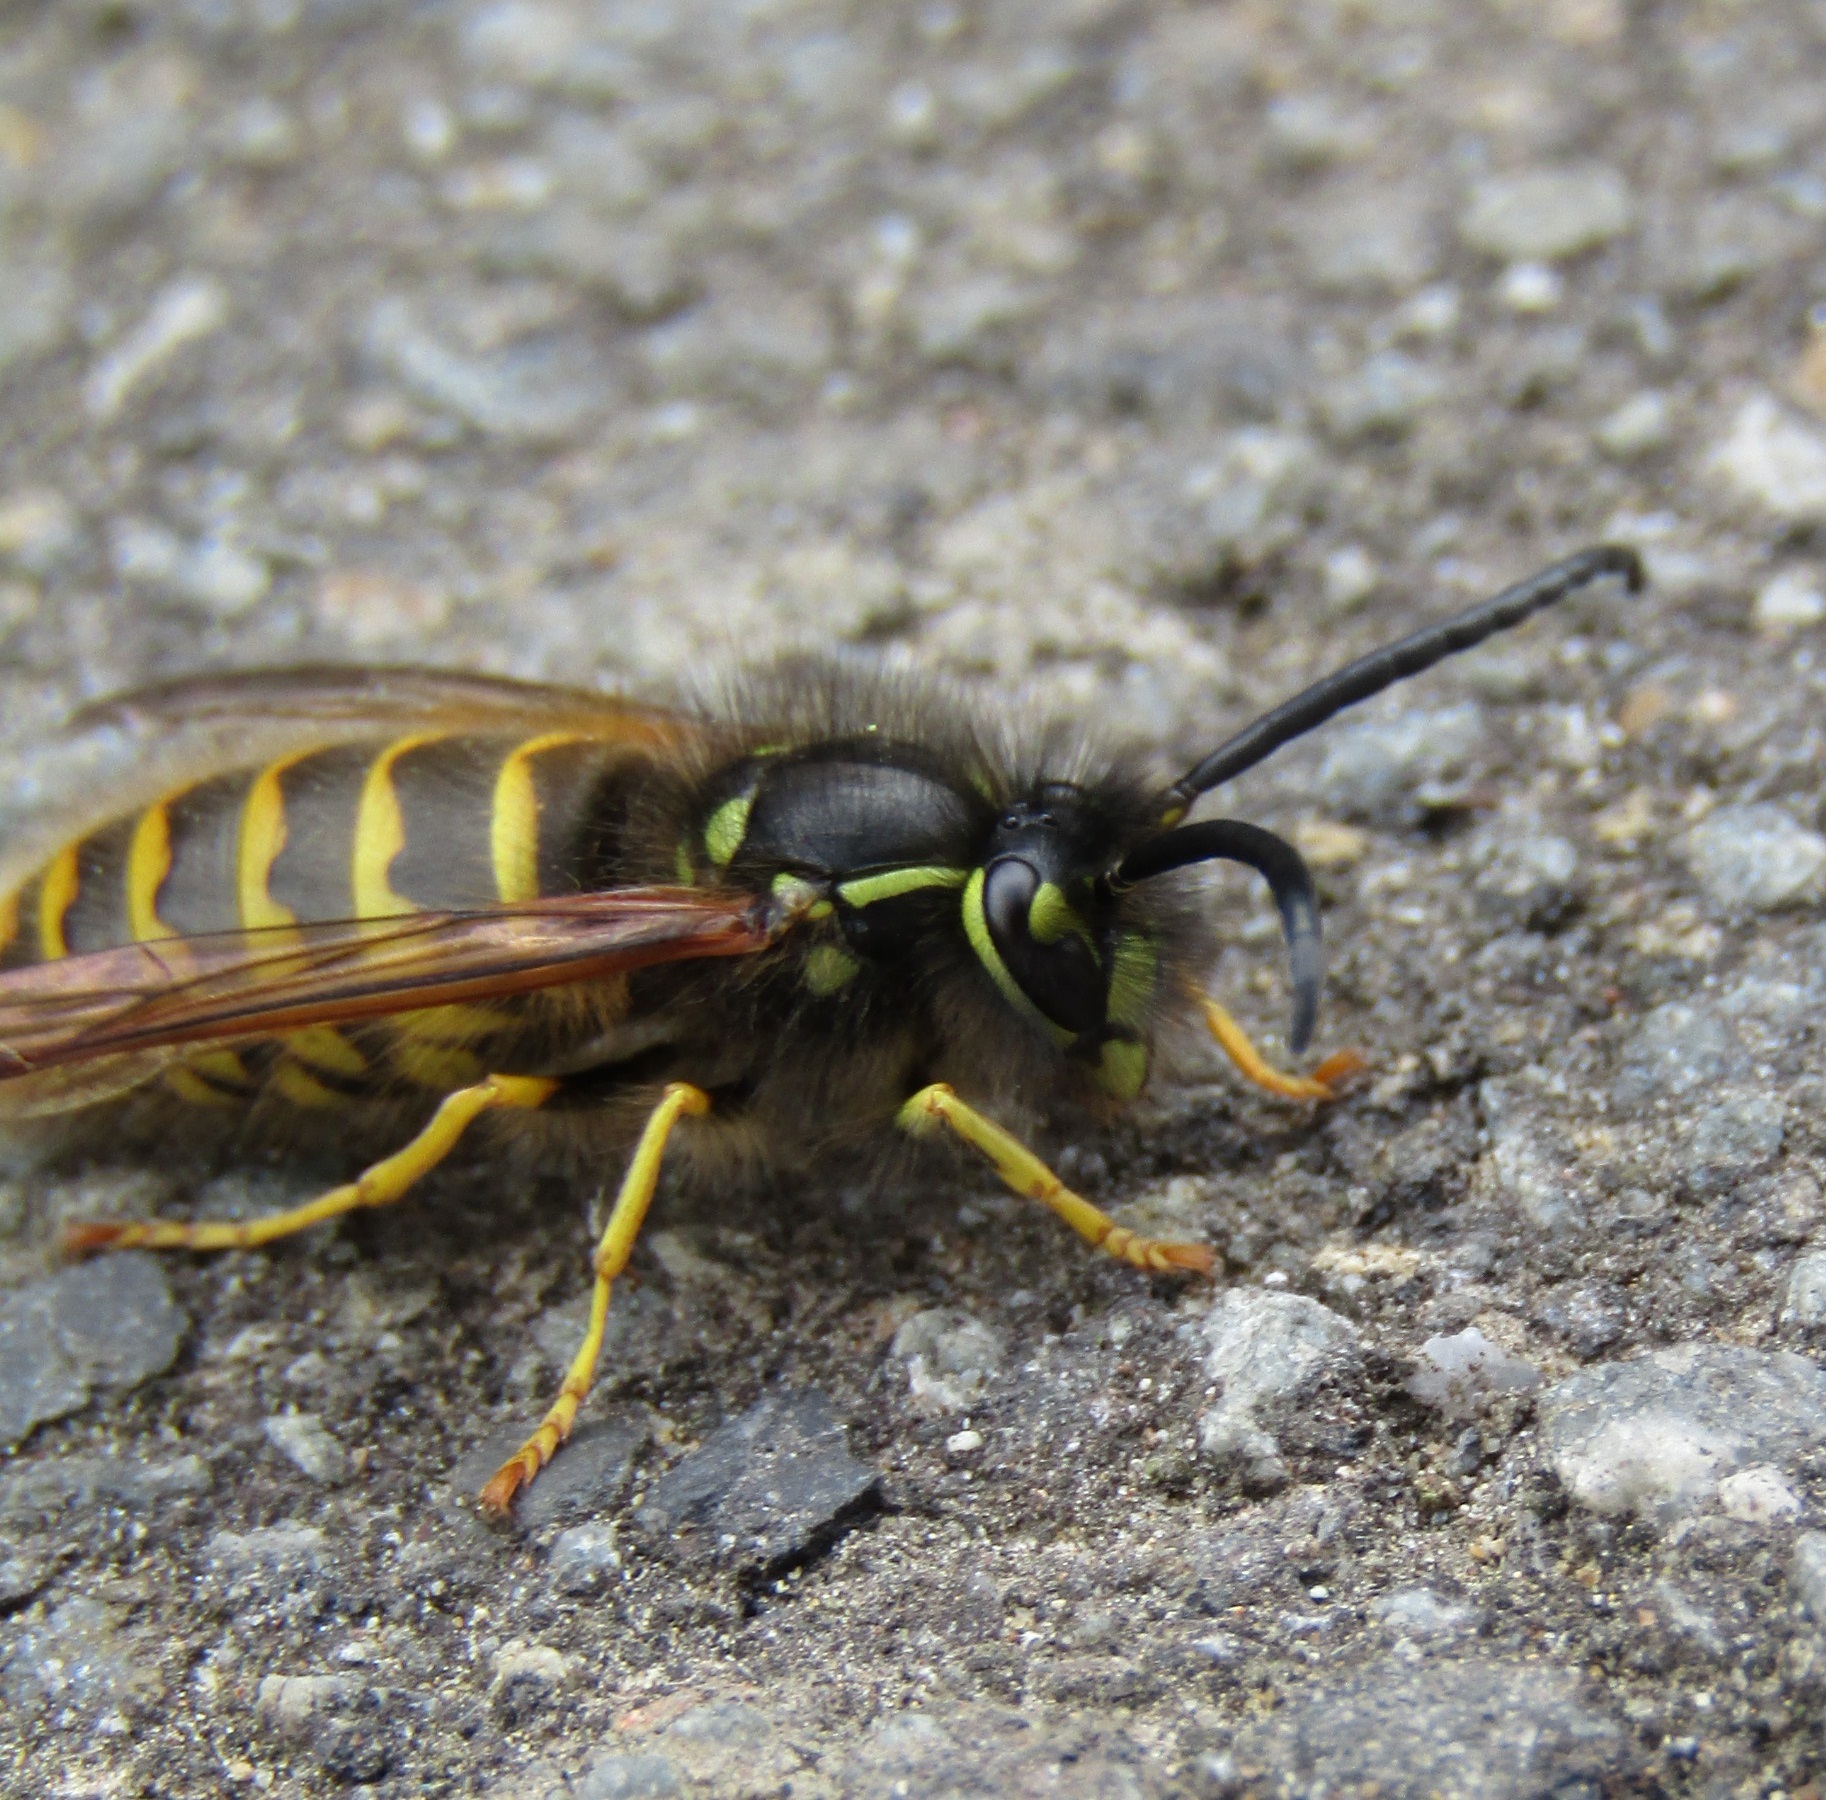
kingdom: Animalia
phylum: Arthropoda
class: Insecta
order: Hymenoptera
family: Vespidae
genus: Vespula
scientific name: Vespula vulgaris
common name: Common wasp
